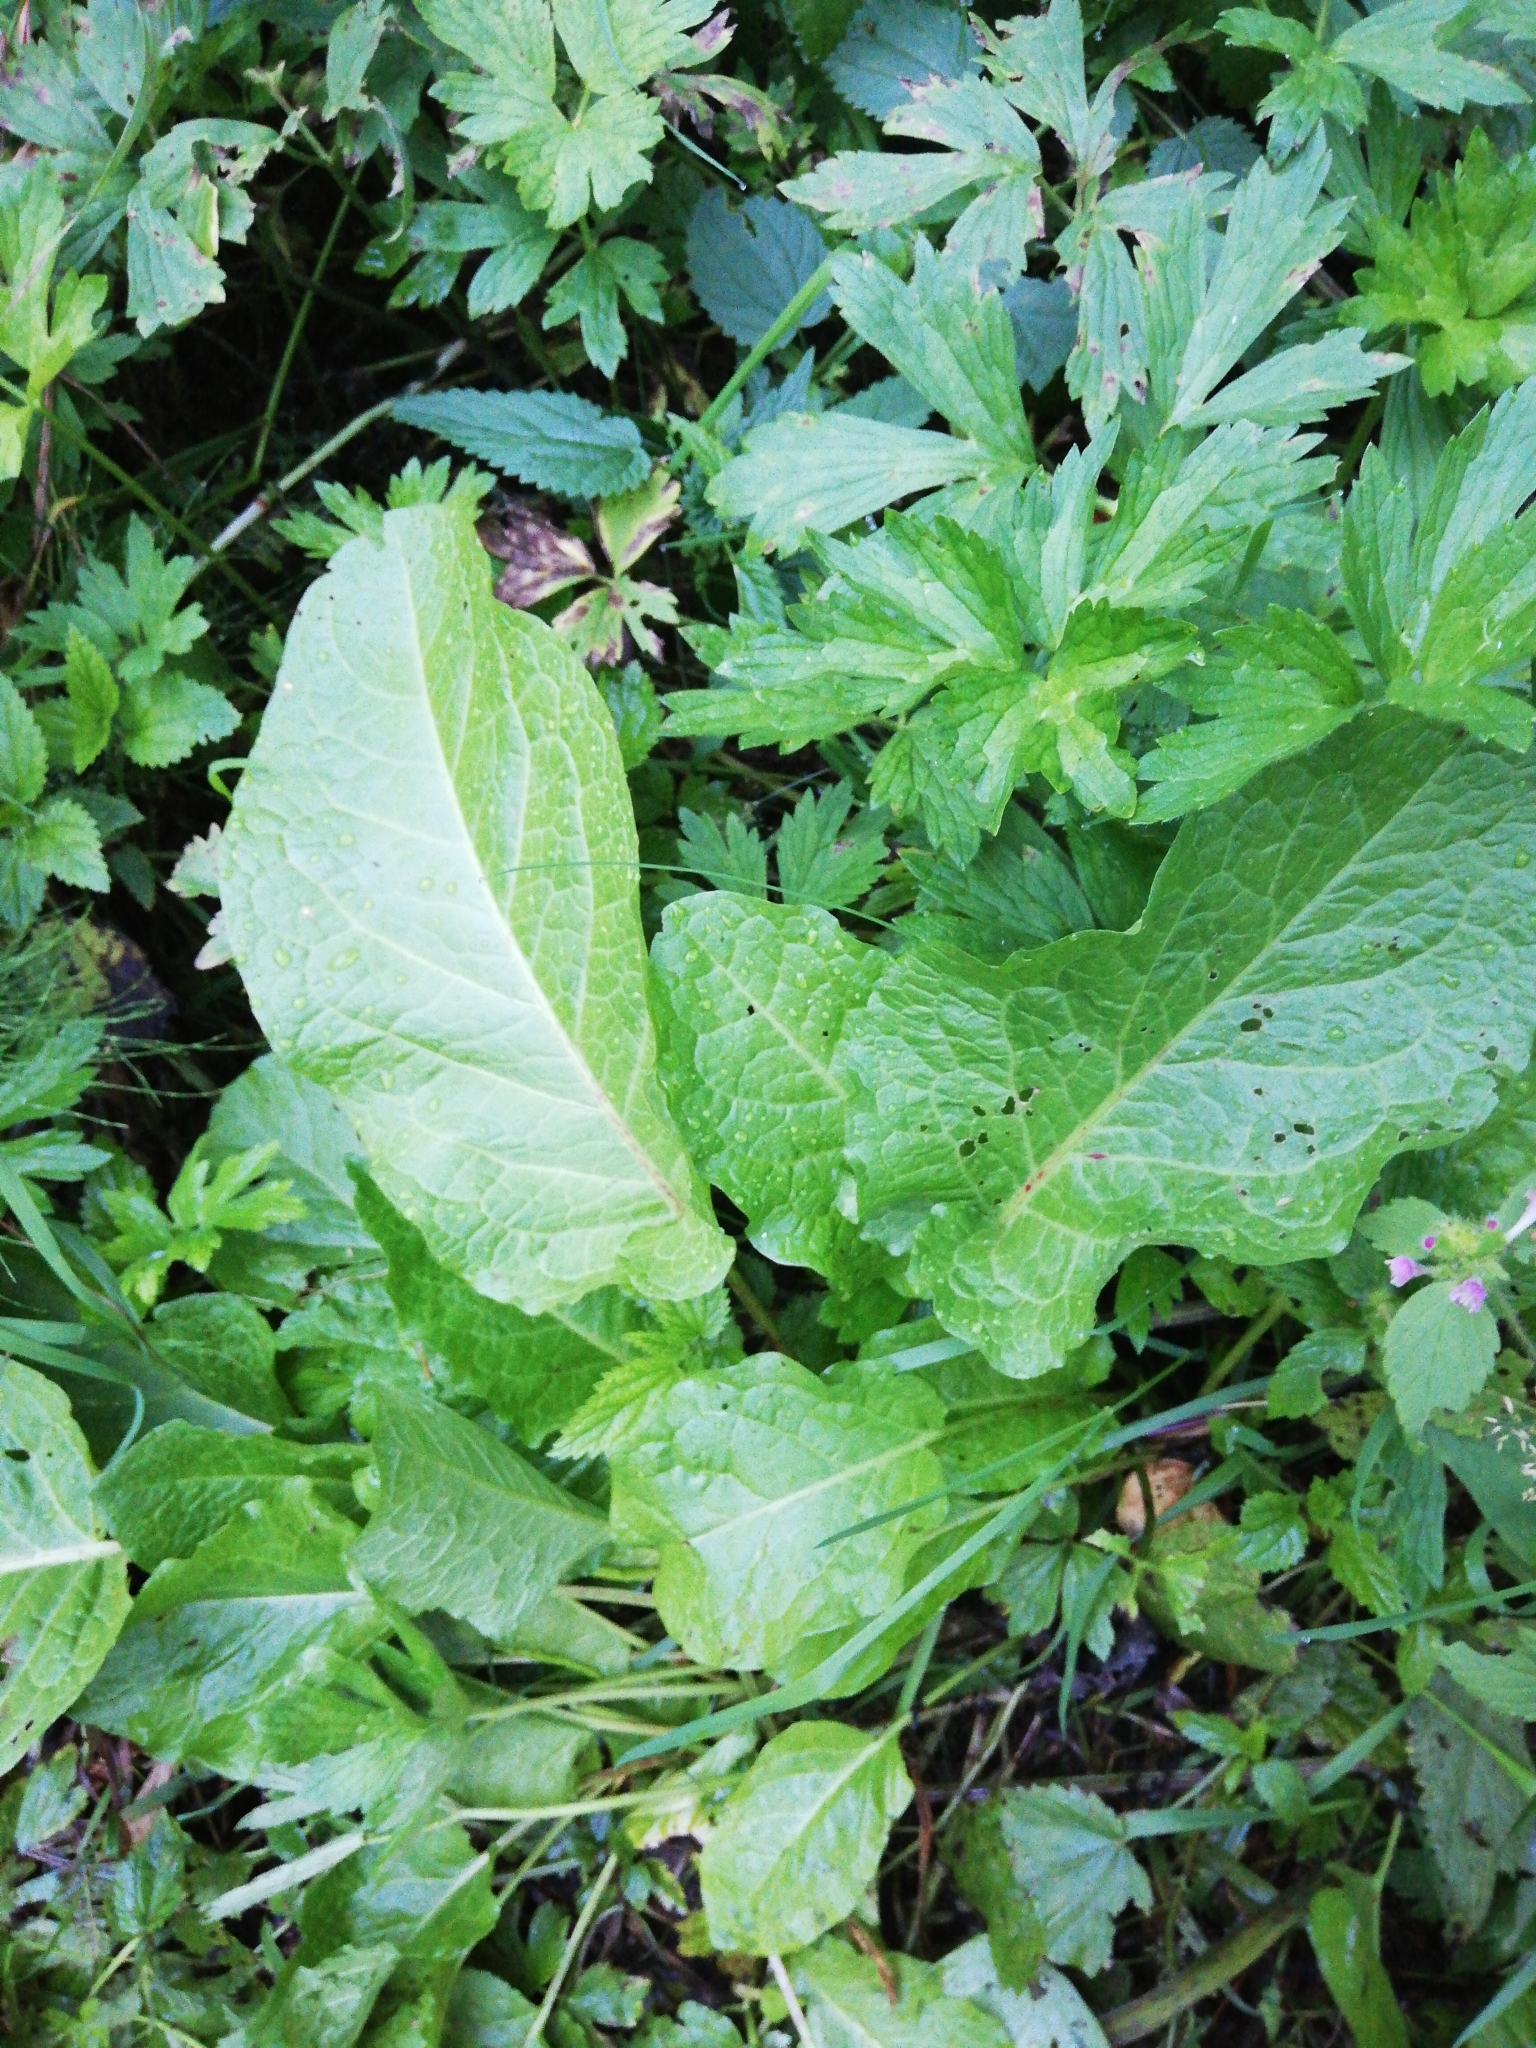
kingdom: Plantae
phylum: Tracheophyta
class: Magnoliopsida
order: Caryophyllales
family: Polygonaceae
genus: Rumex
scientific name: Rumex obtusifolius
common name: Bitter dock
